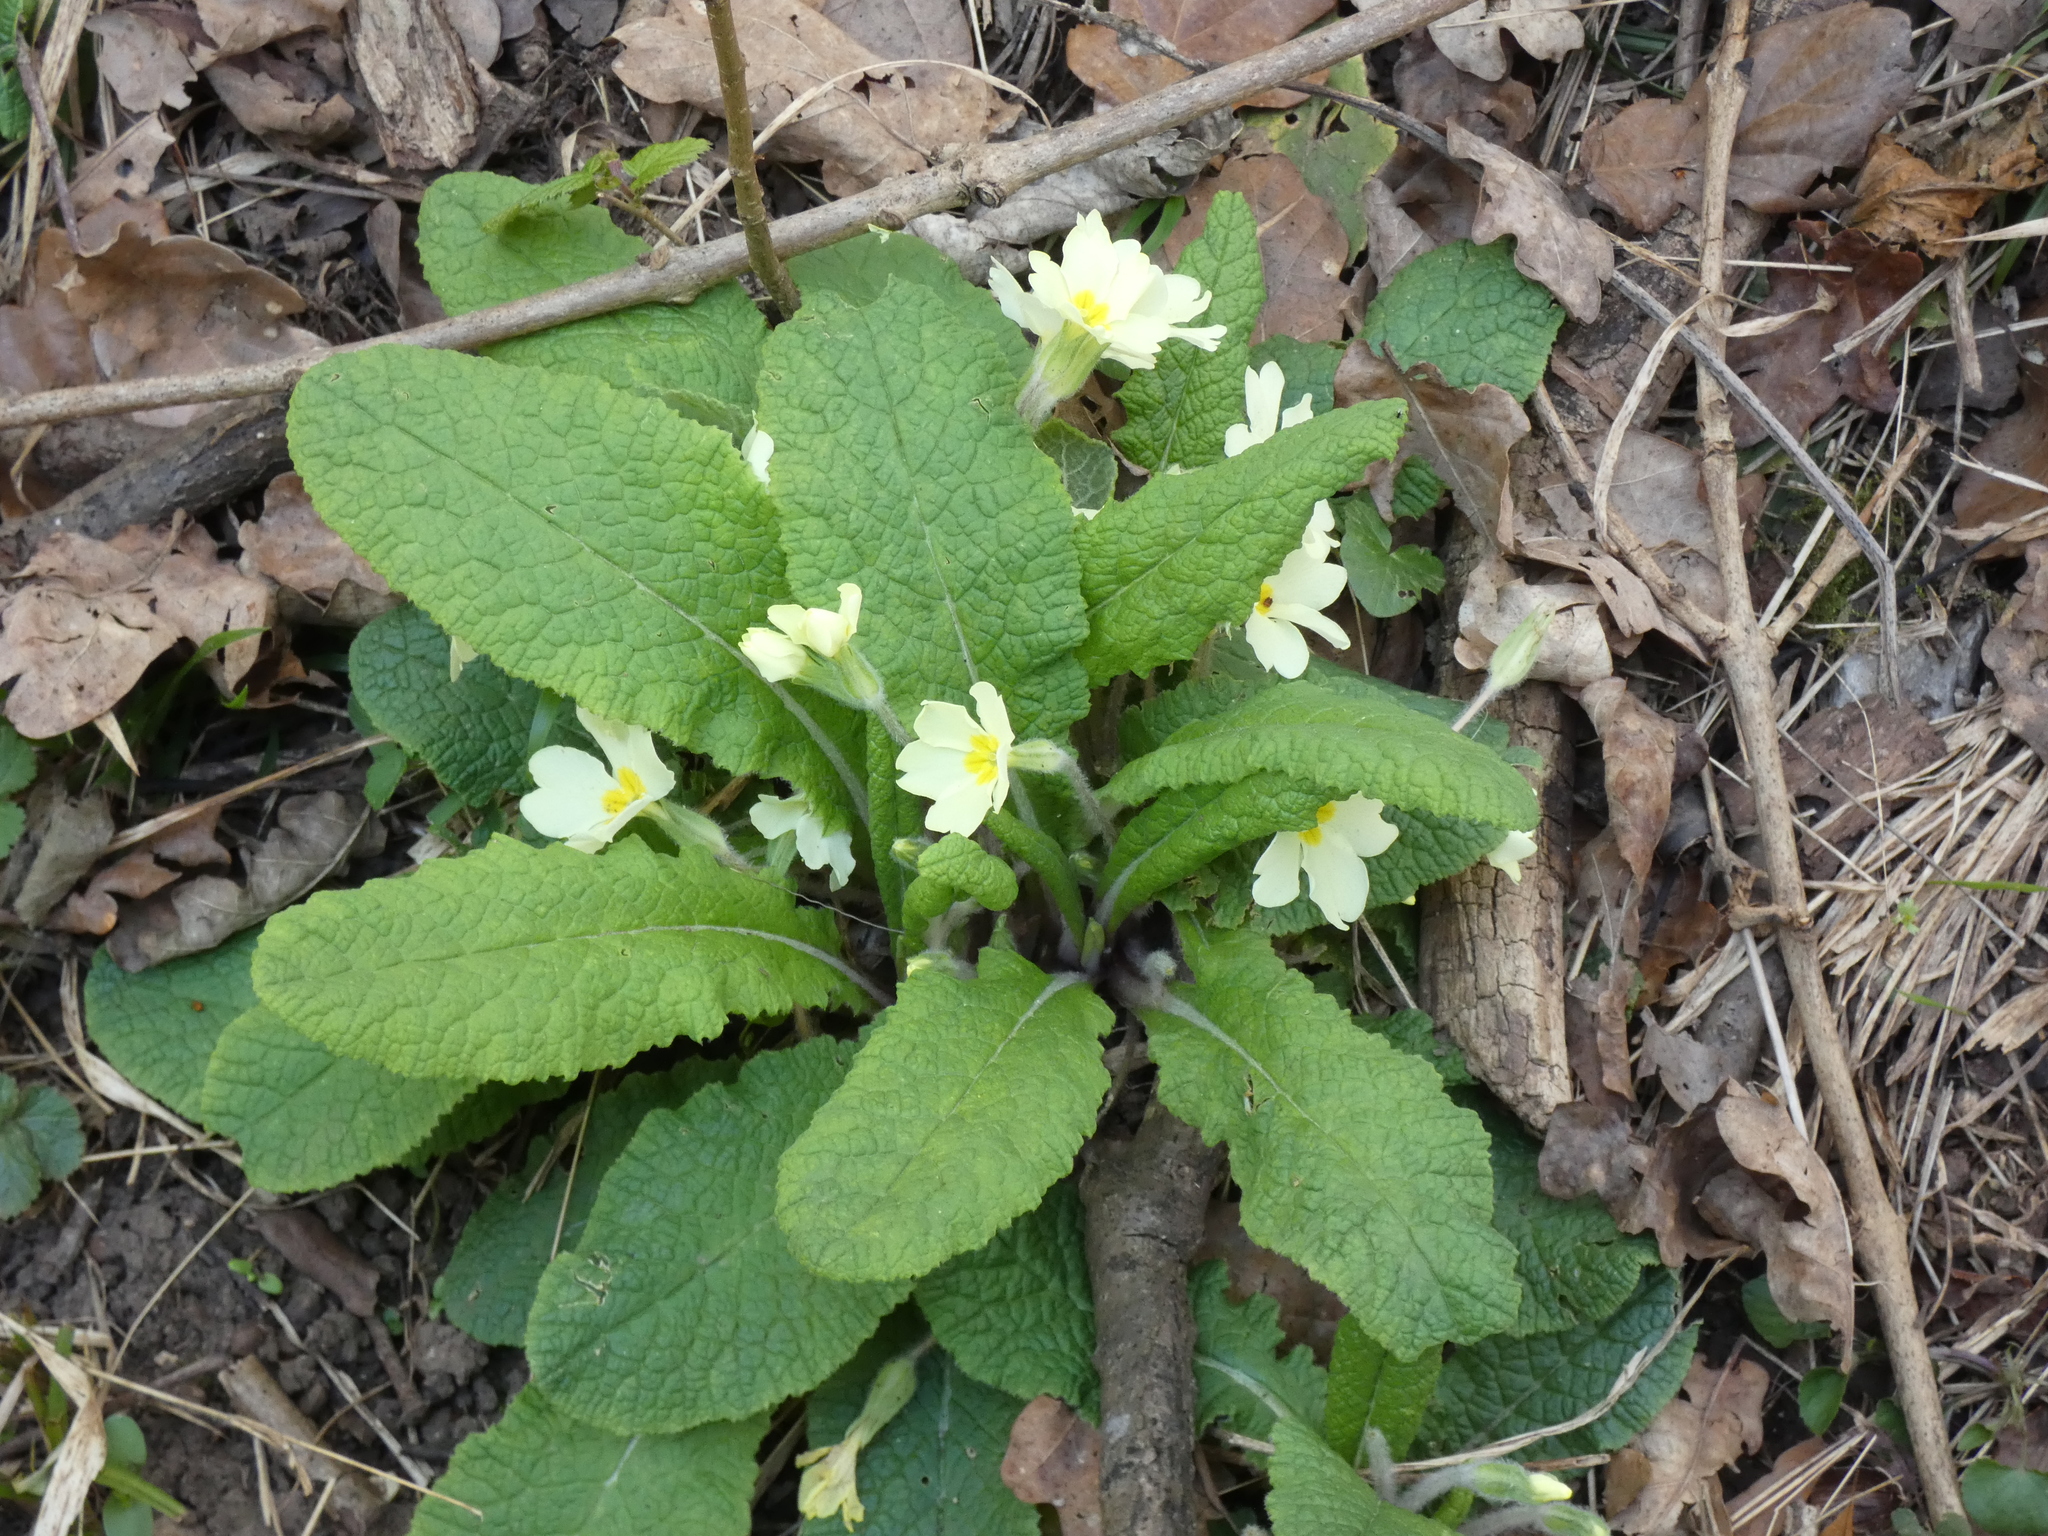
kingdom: Plantae
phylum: Tracheophyta
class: Magnoliopsida
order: Ericales
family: Primulaceae
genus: Primula
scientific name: Primula vulgaris
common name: Primrose
